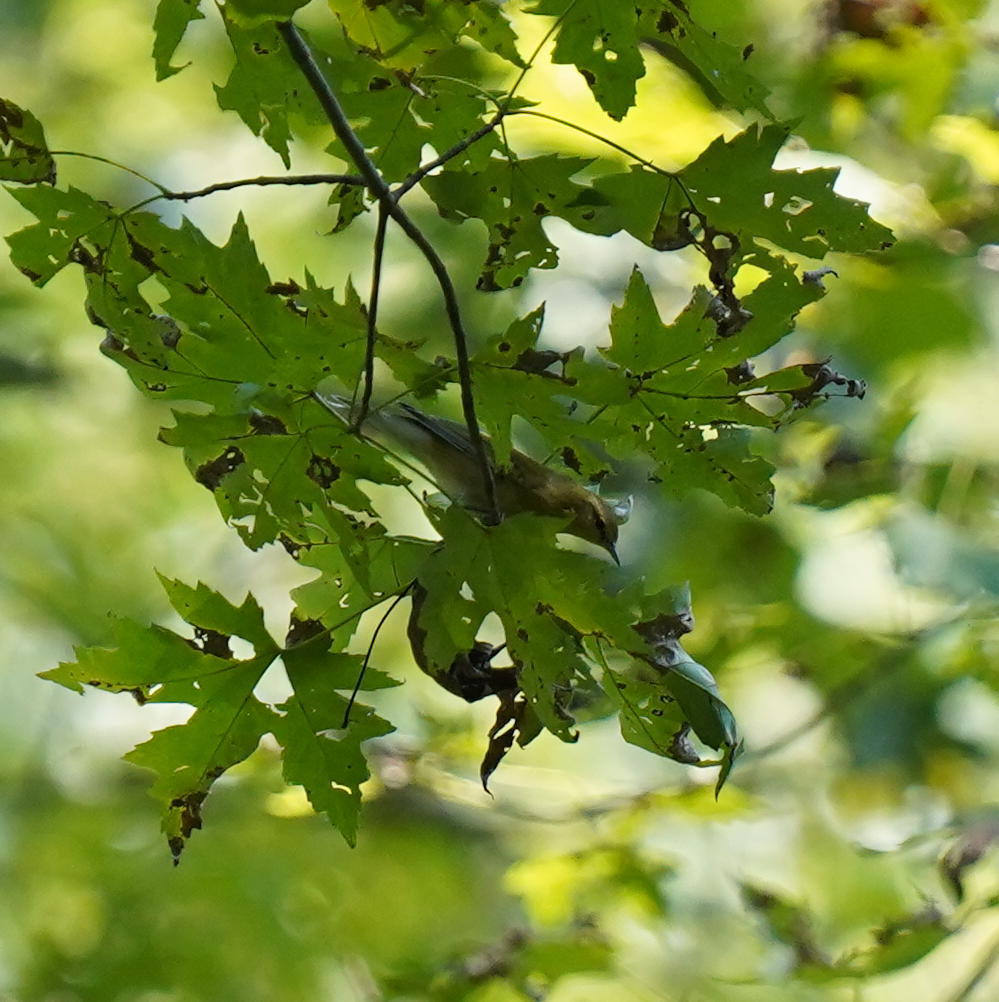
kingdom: Animalia
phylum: Chordata
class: Aves
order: Passeriformes
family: Parulidae
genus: Leiothlypis
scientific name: Leiothlypis peregrina
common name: Tennessee warbler
